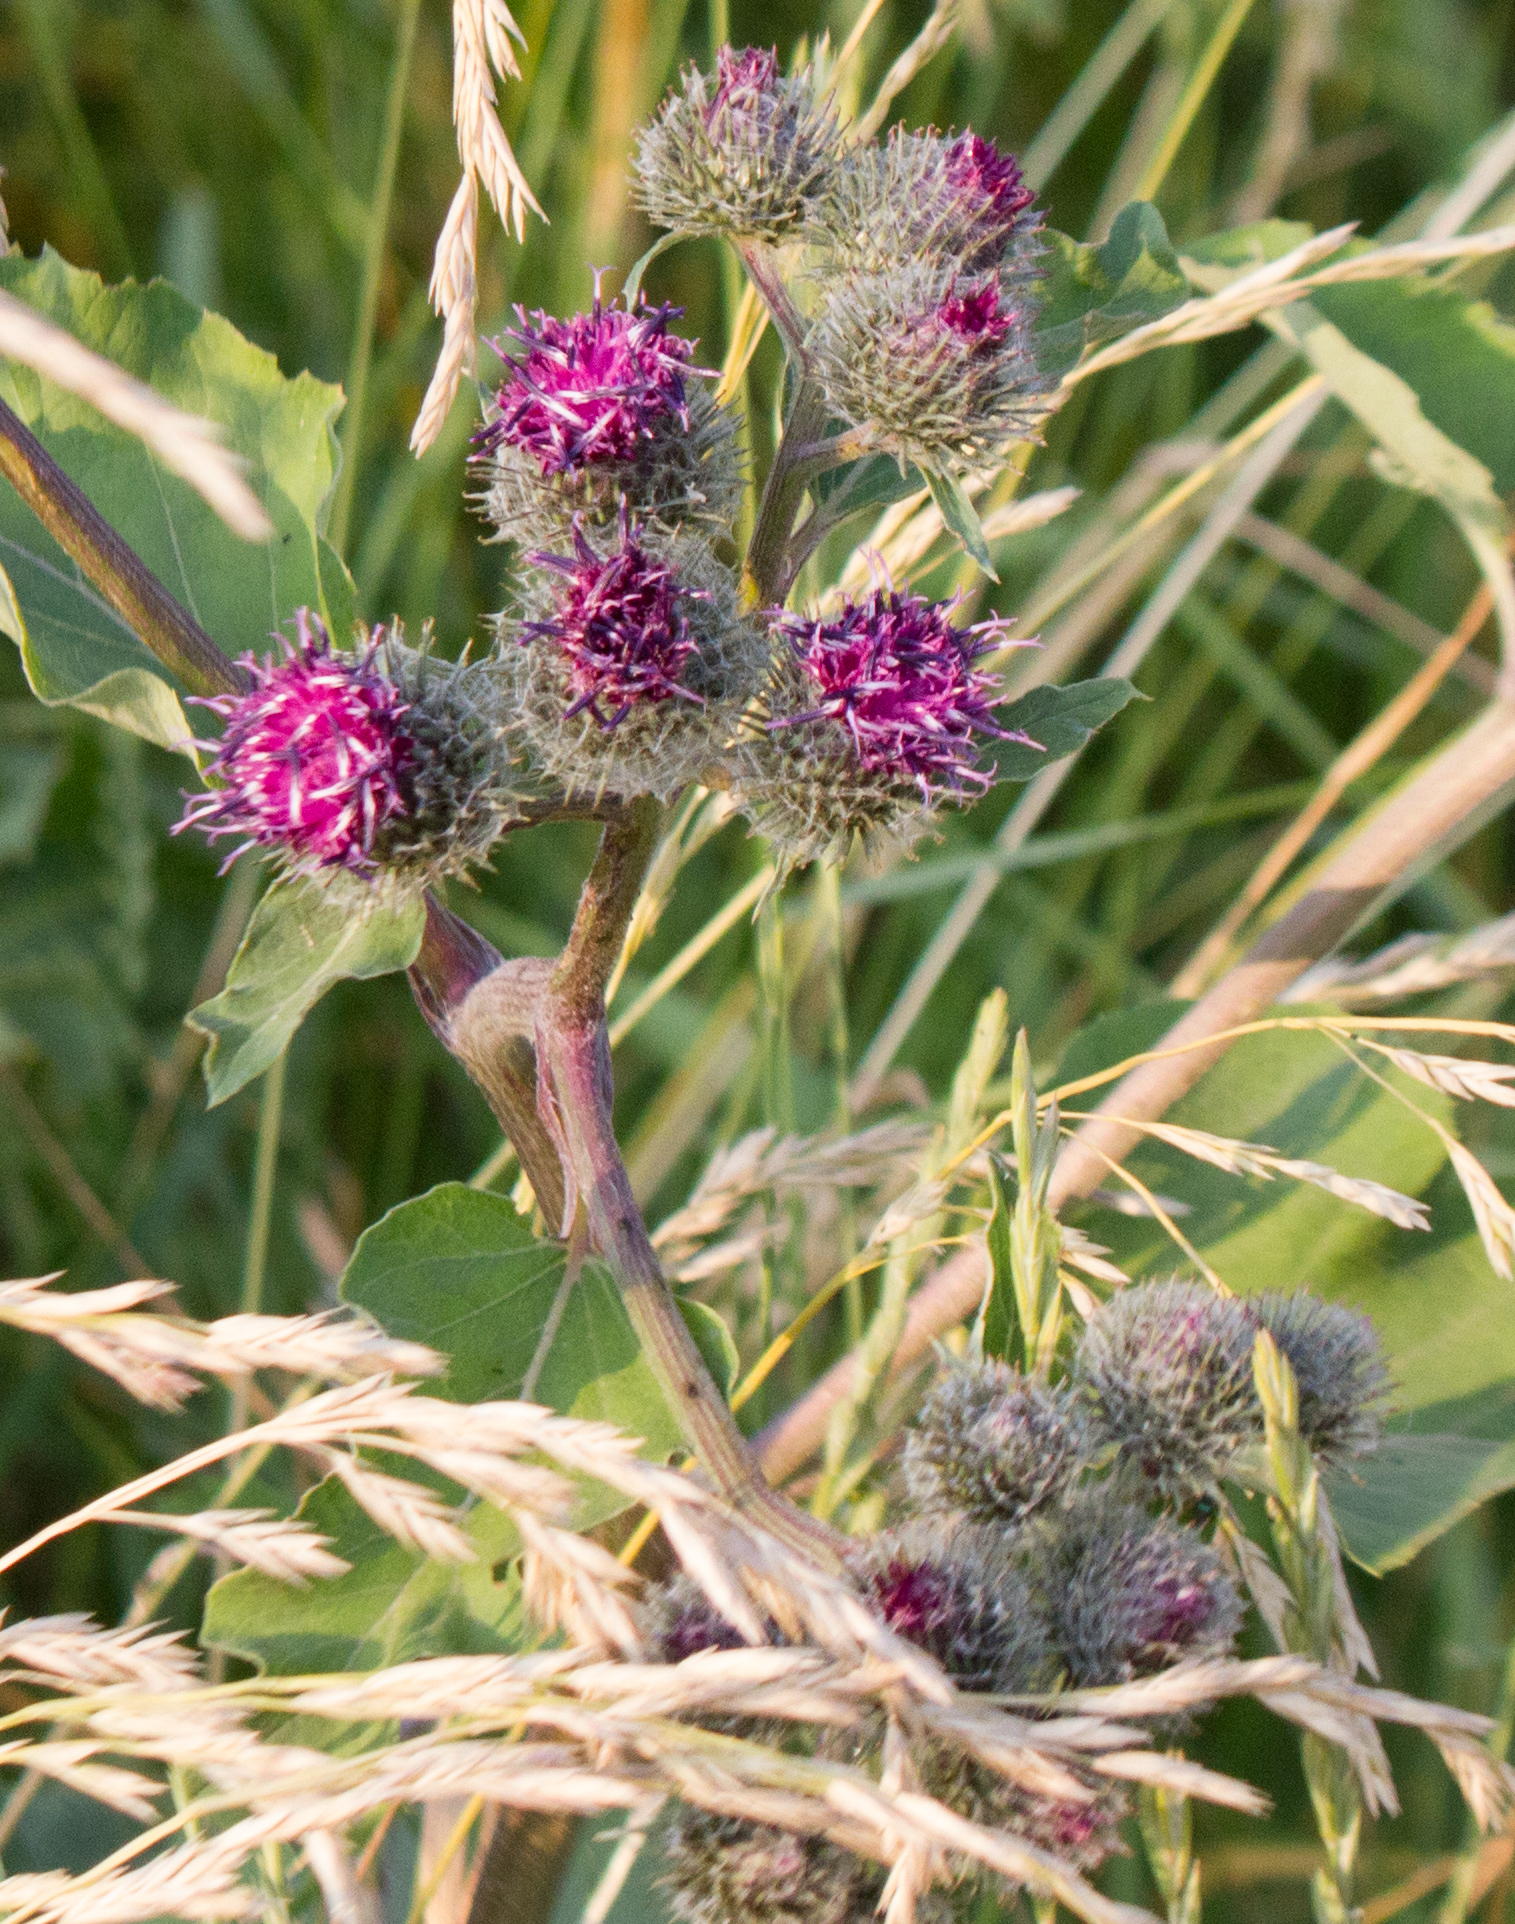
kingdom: Plantae
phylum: Tracheophyta
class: Magnoliopsida
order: Asterales
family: Asteraceae
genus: Arctium
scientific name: Arctium tomentosum
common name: Woolly burdock
